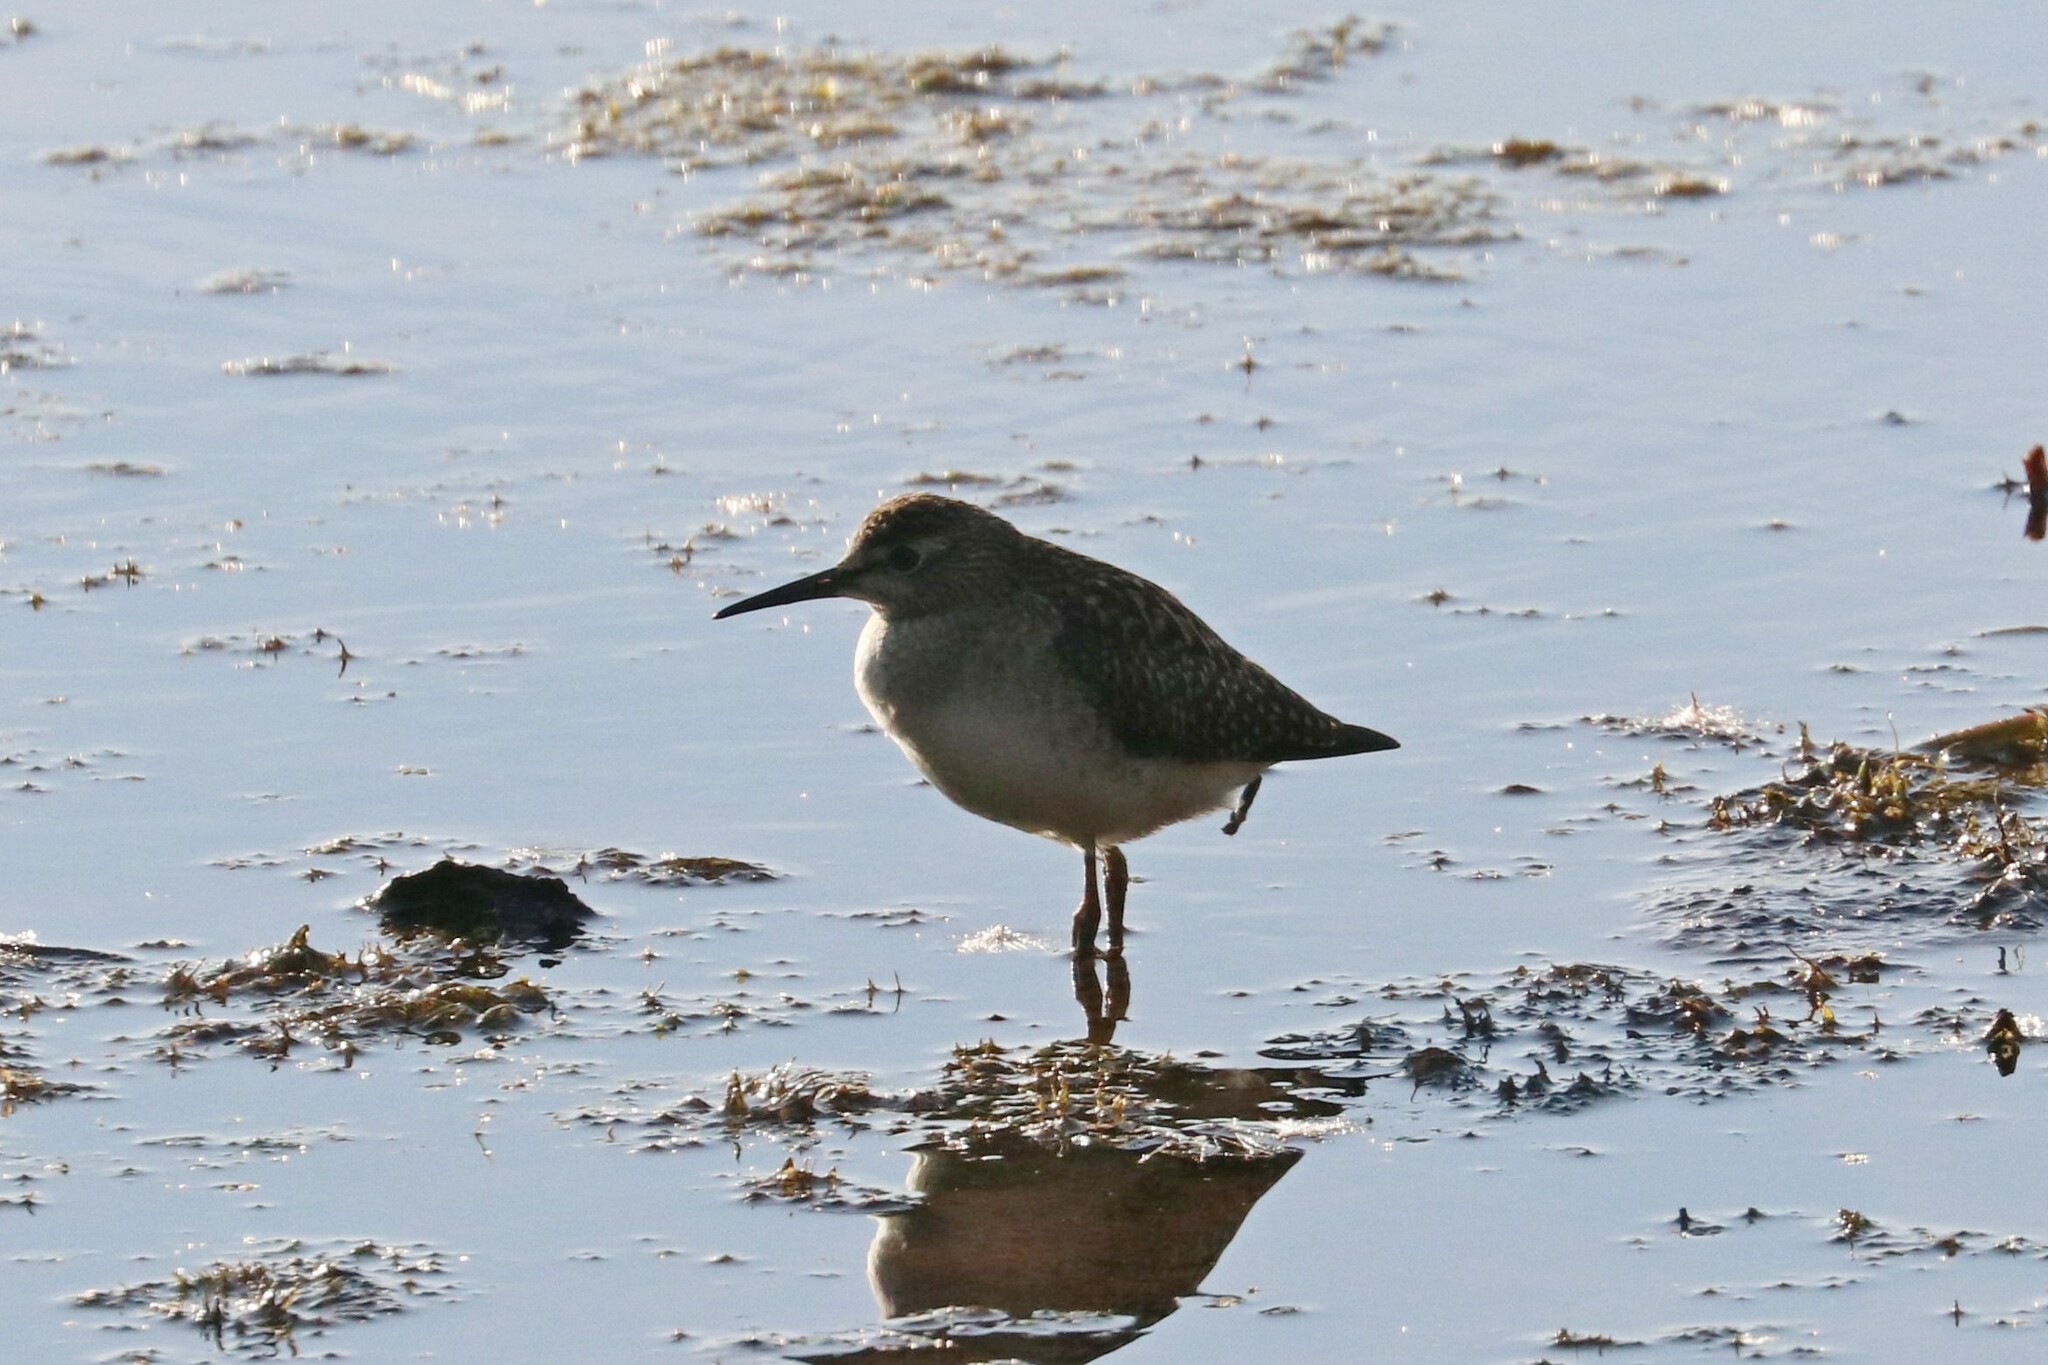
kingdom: Animalia
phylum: Chordata
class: Aves
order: Charadriiformes
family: Scolopacidae
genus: Tringa
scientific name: Tringa glareola
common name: Wood sandpiper
